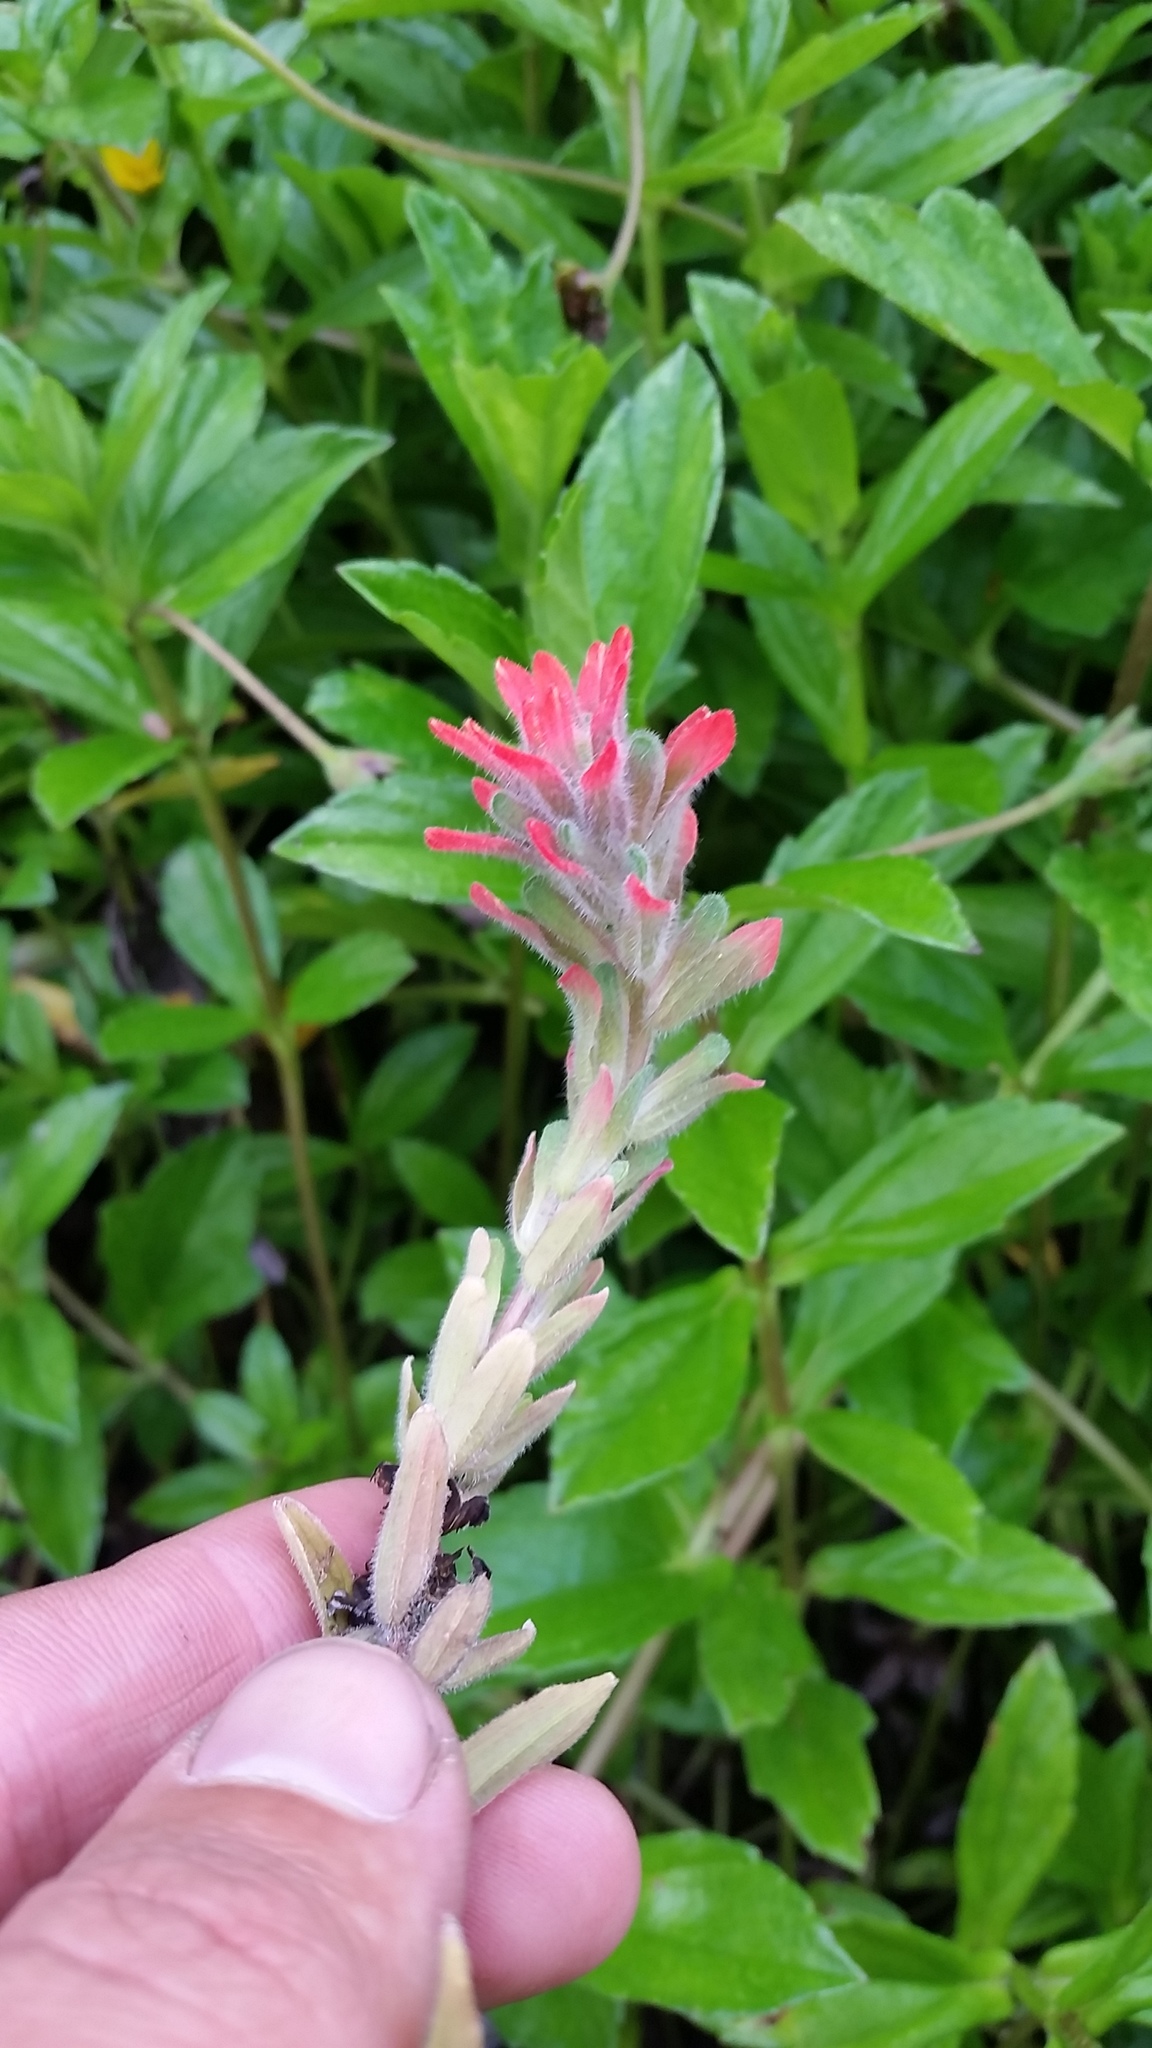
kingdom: Plantae
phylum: Tracheophyta
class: Magnoliopsida
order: Lamiales
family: Orobanchaceae
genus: Castilleja
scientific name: Castilleja arvensis
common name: Indian paintbrush
